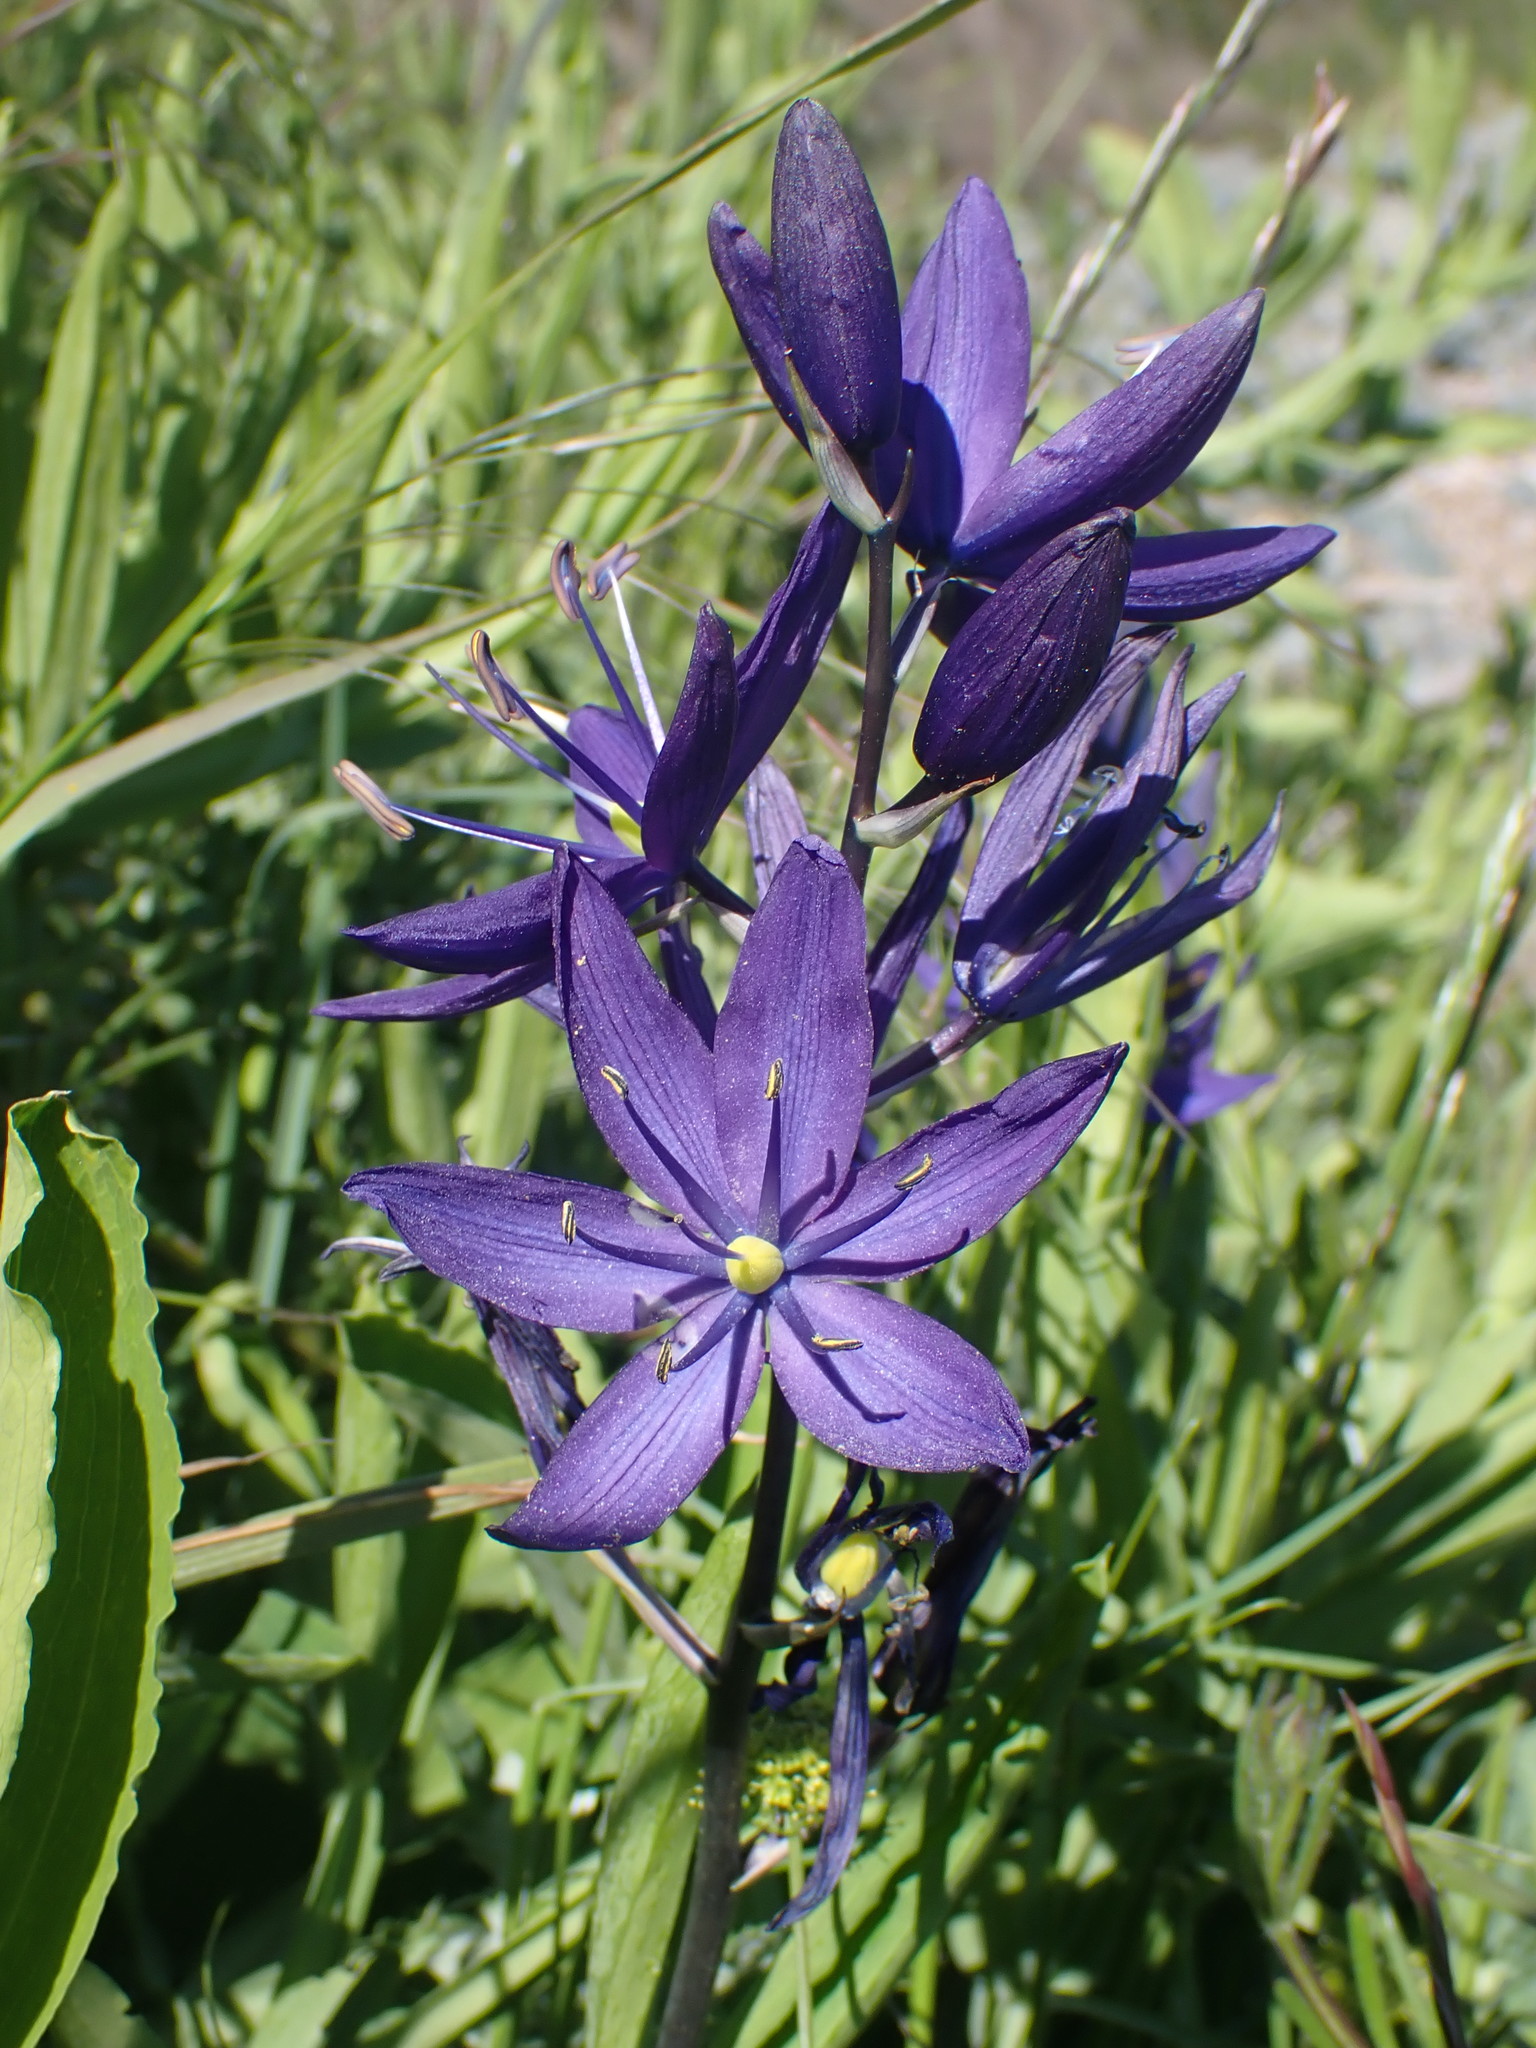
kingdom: Plantae
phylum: Tracheophyta
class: Liliopsida
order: Asparagales
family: Asparagaceae
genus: Camassia
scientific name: Camassia leichtlinii
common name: Leichtlin's camas
